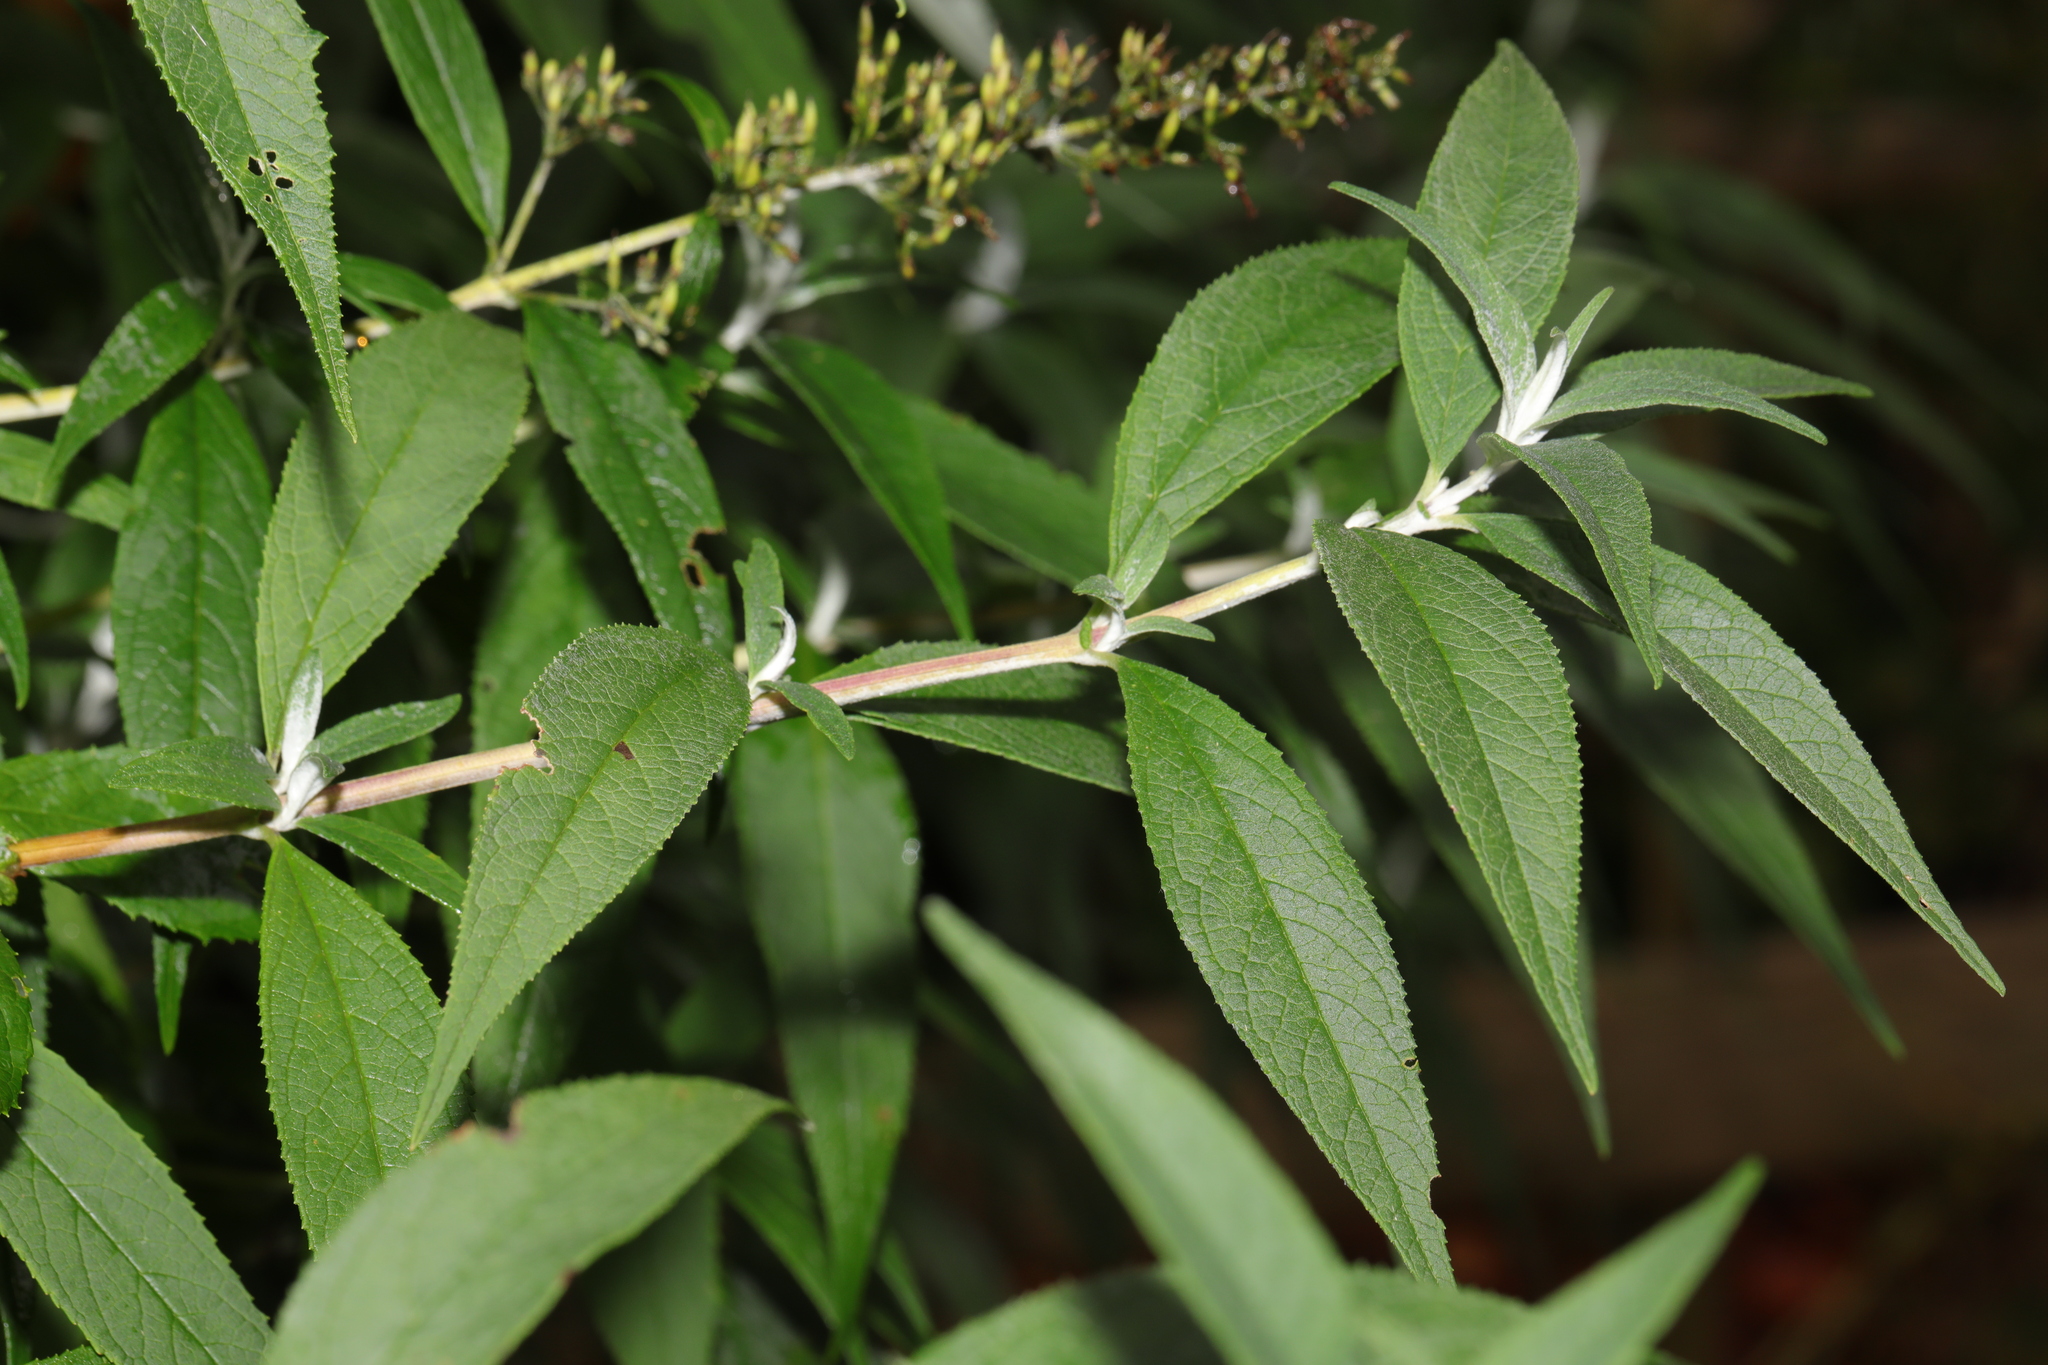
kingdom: Plantae
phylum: Tracheophyta
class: Magnoliopsida
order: Lamiales
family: Scrophulariaceae
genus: Buddleja
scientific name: Buddleja davidii
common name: Butterfly-bush
